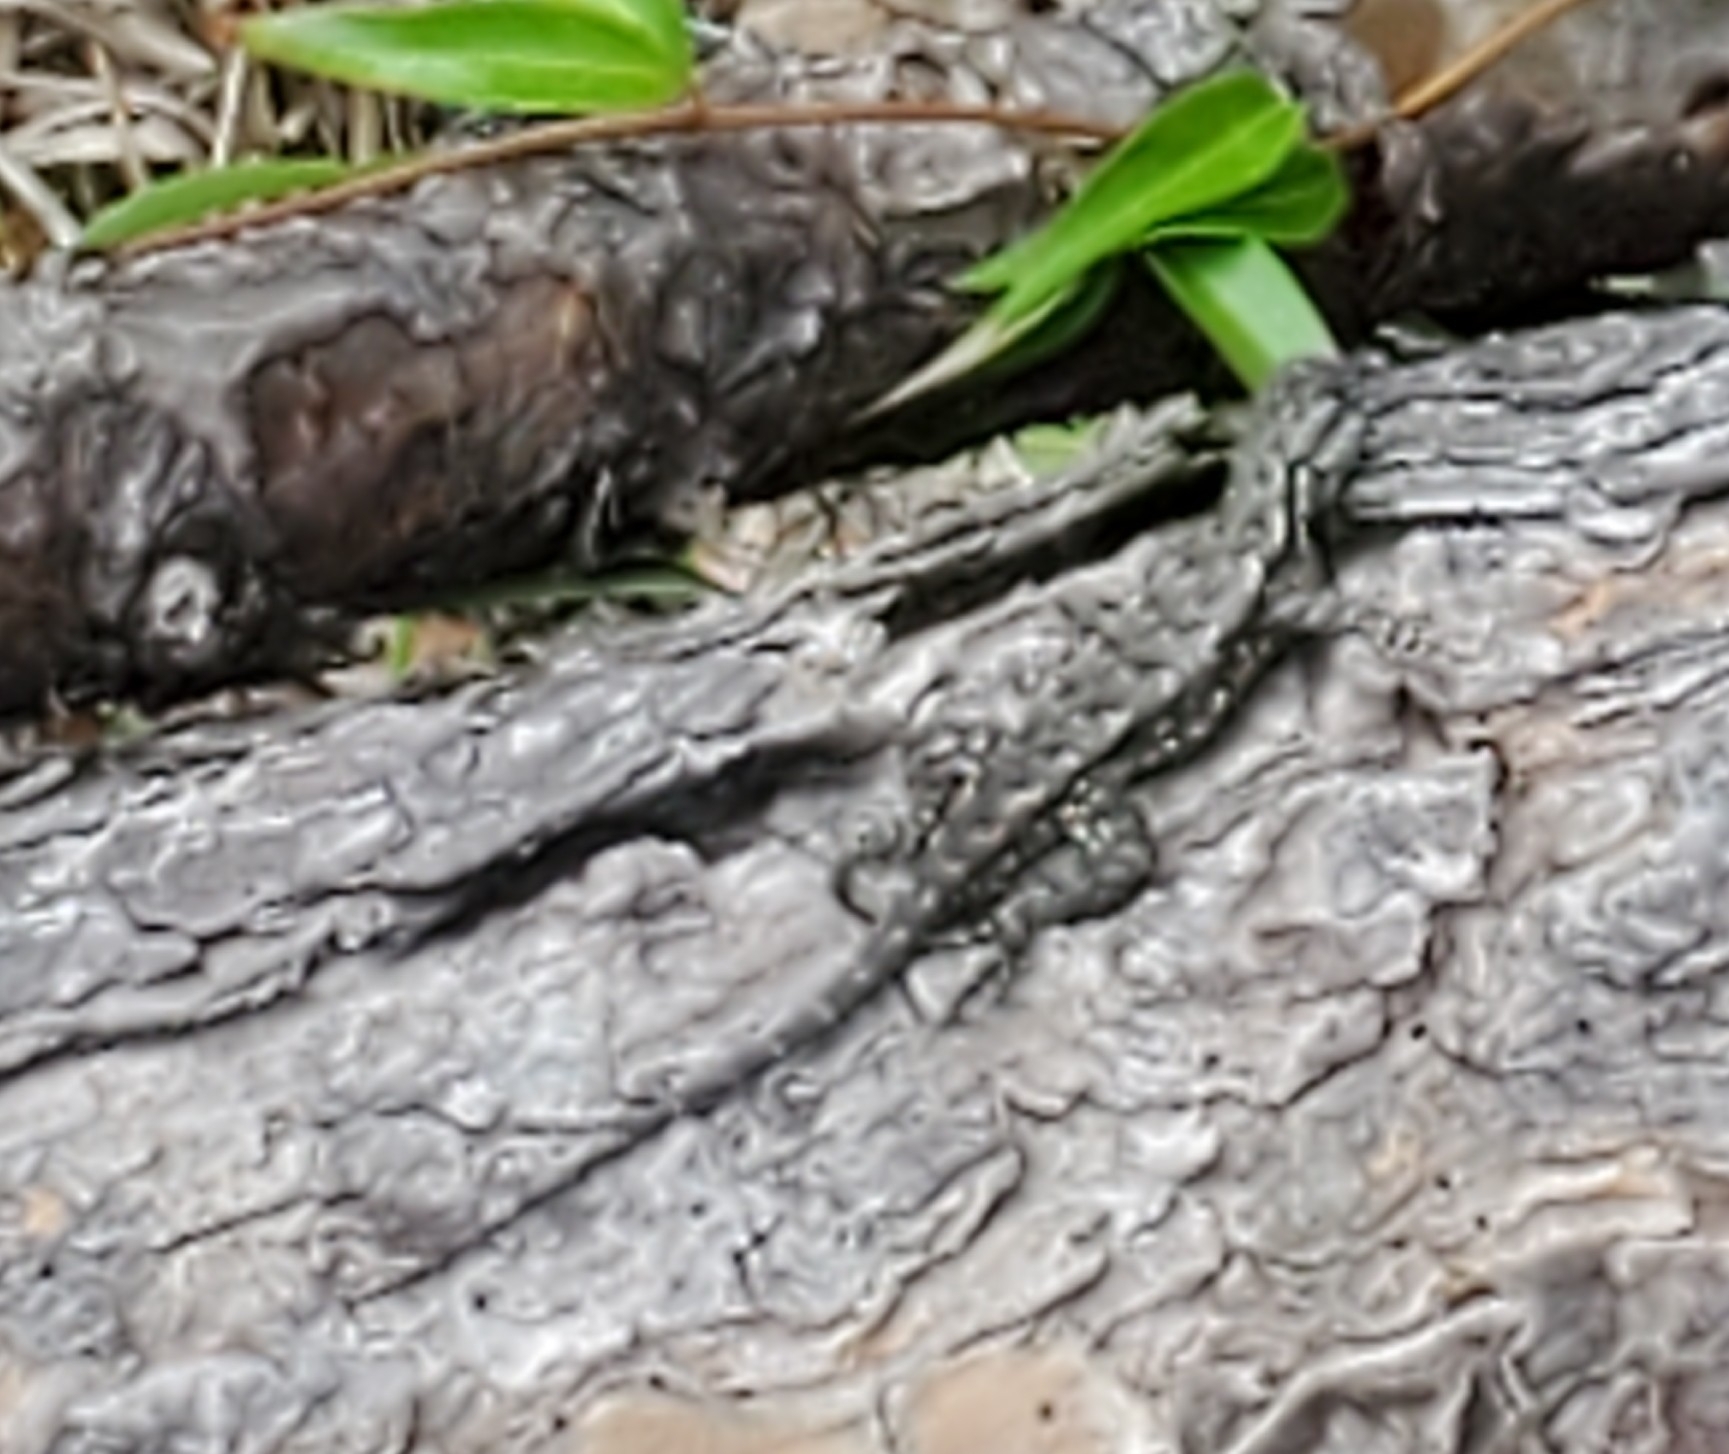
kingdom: Animalia
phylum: Chordata
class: Squamata
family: Phrynosomatidae
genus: Sceloporus
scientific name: Sceloporus undulatus
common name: Eastern fence lizard
